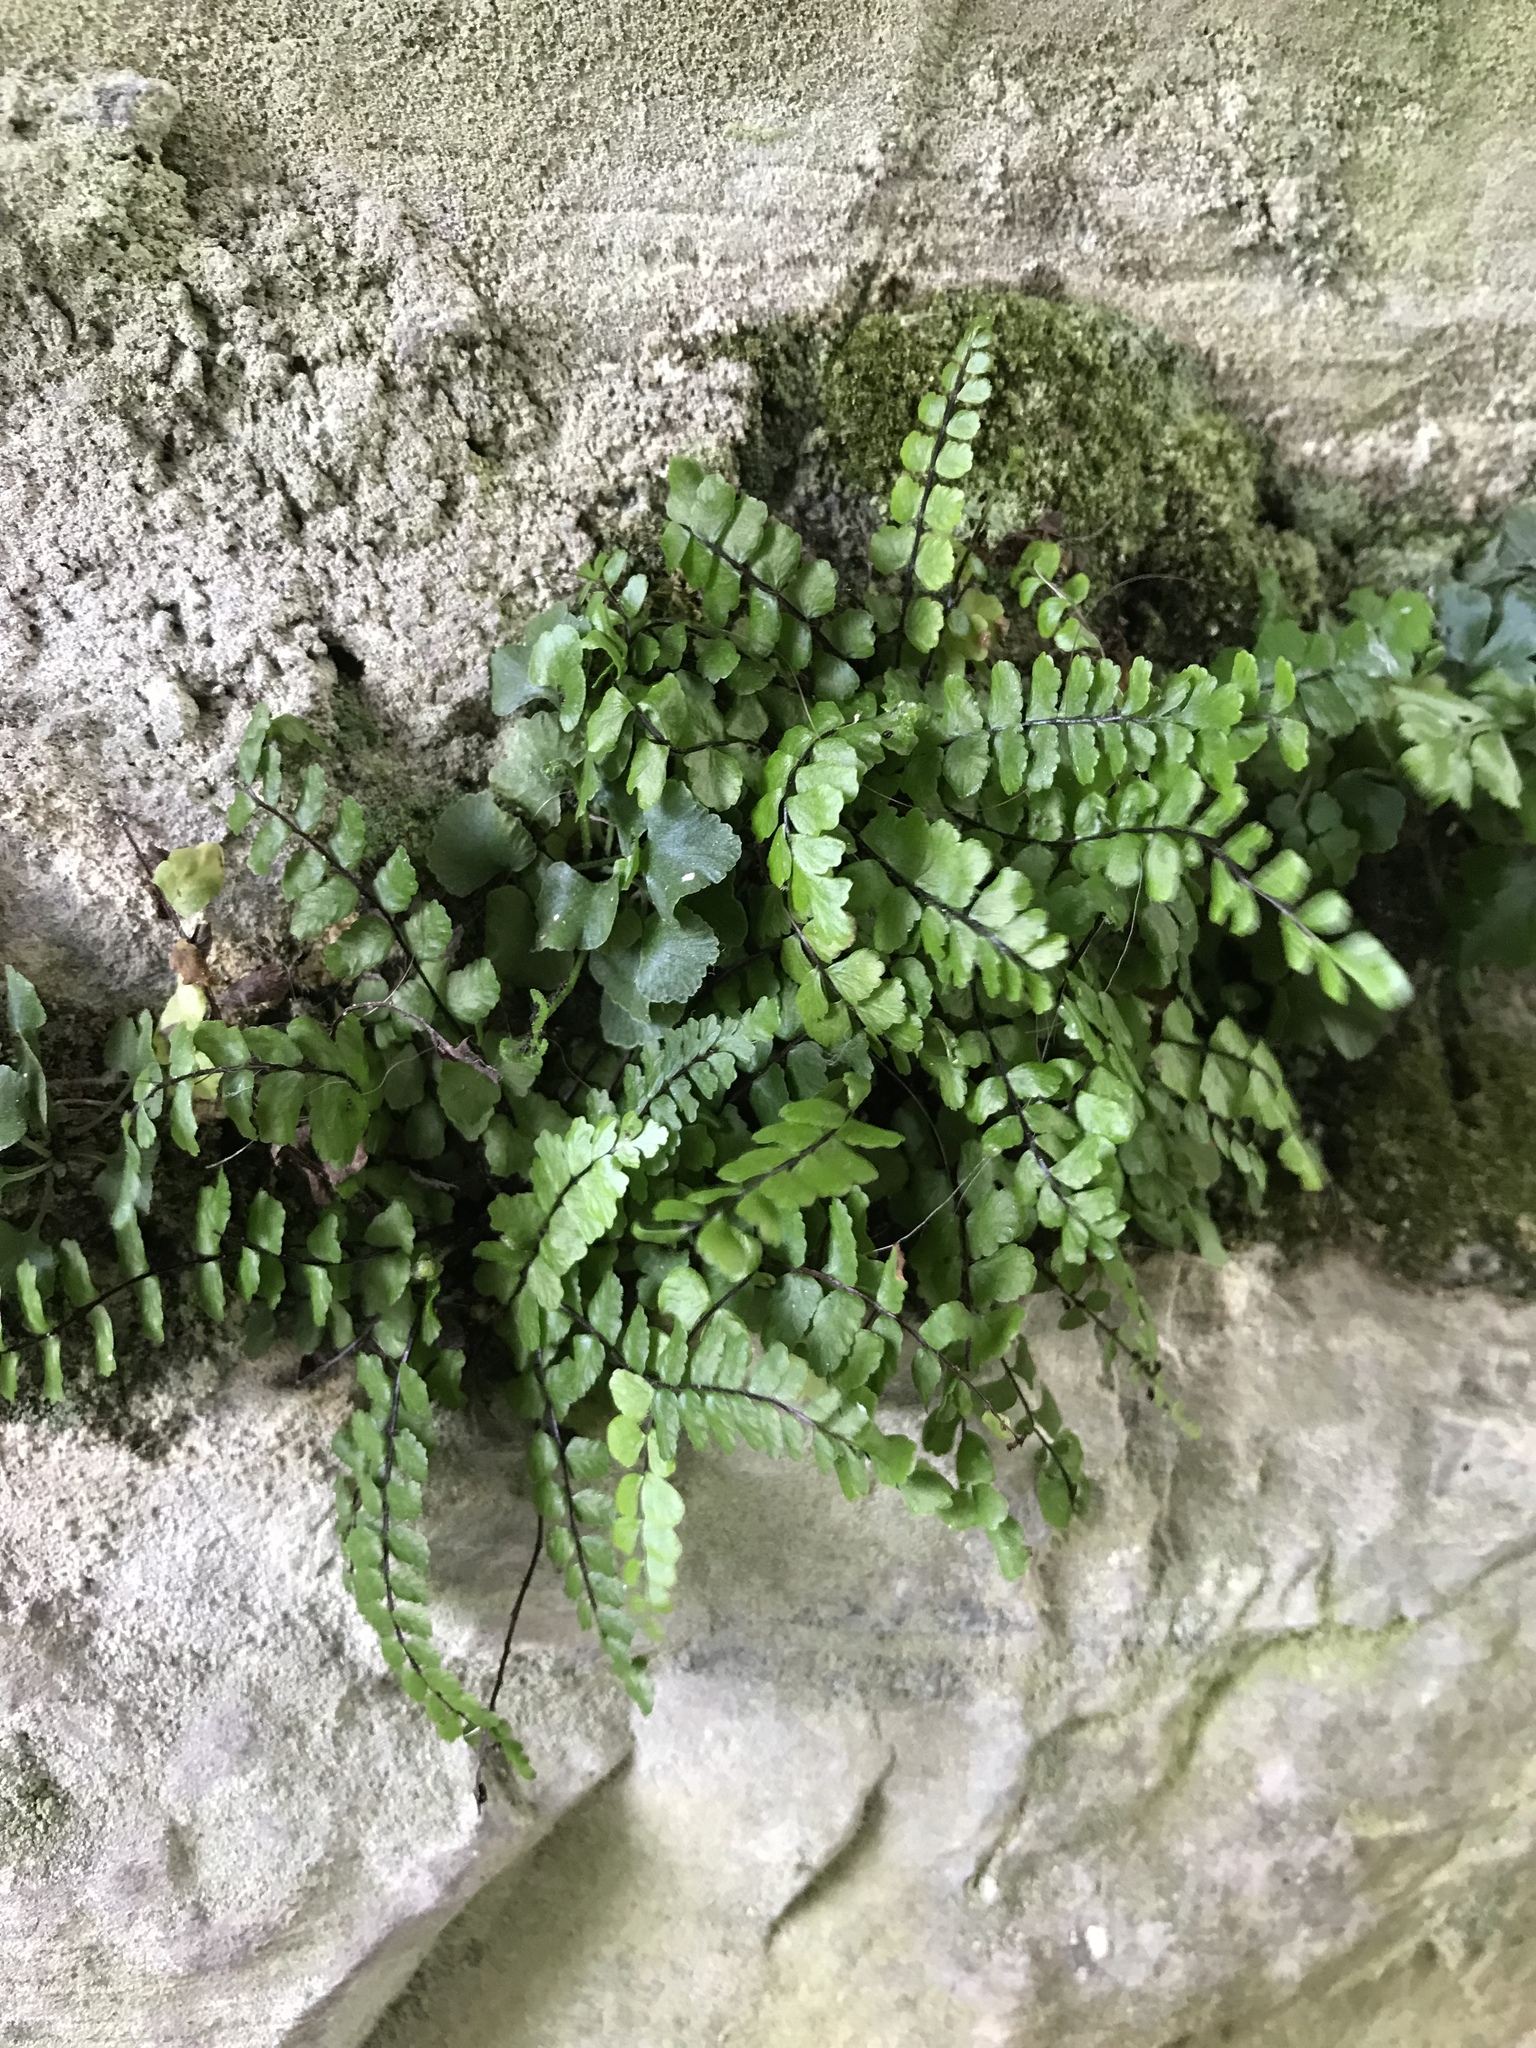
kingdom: Plantae
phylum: Tracheophyta
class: Polypodiopsida
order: Polypodiales
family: Aspleniaceae
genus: Asplenium
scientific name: Asplenium trichomanes
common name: Maidenhair spleenwort
